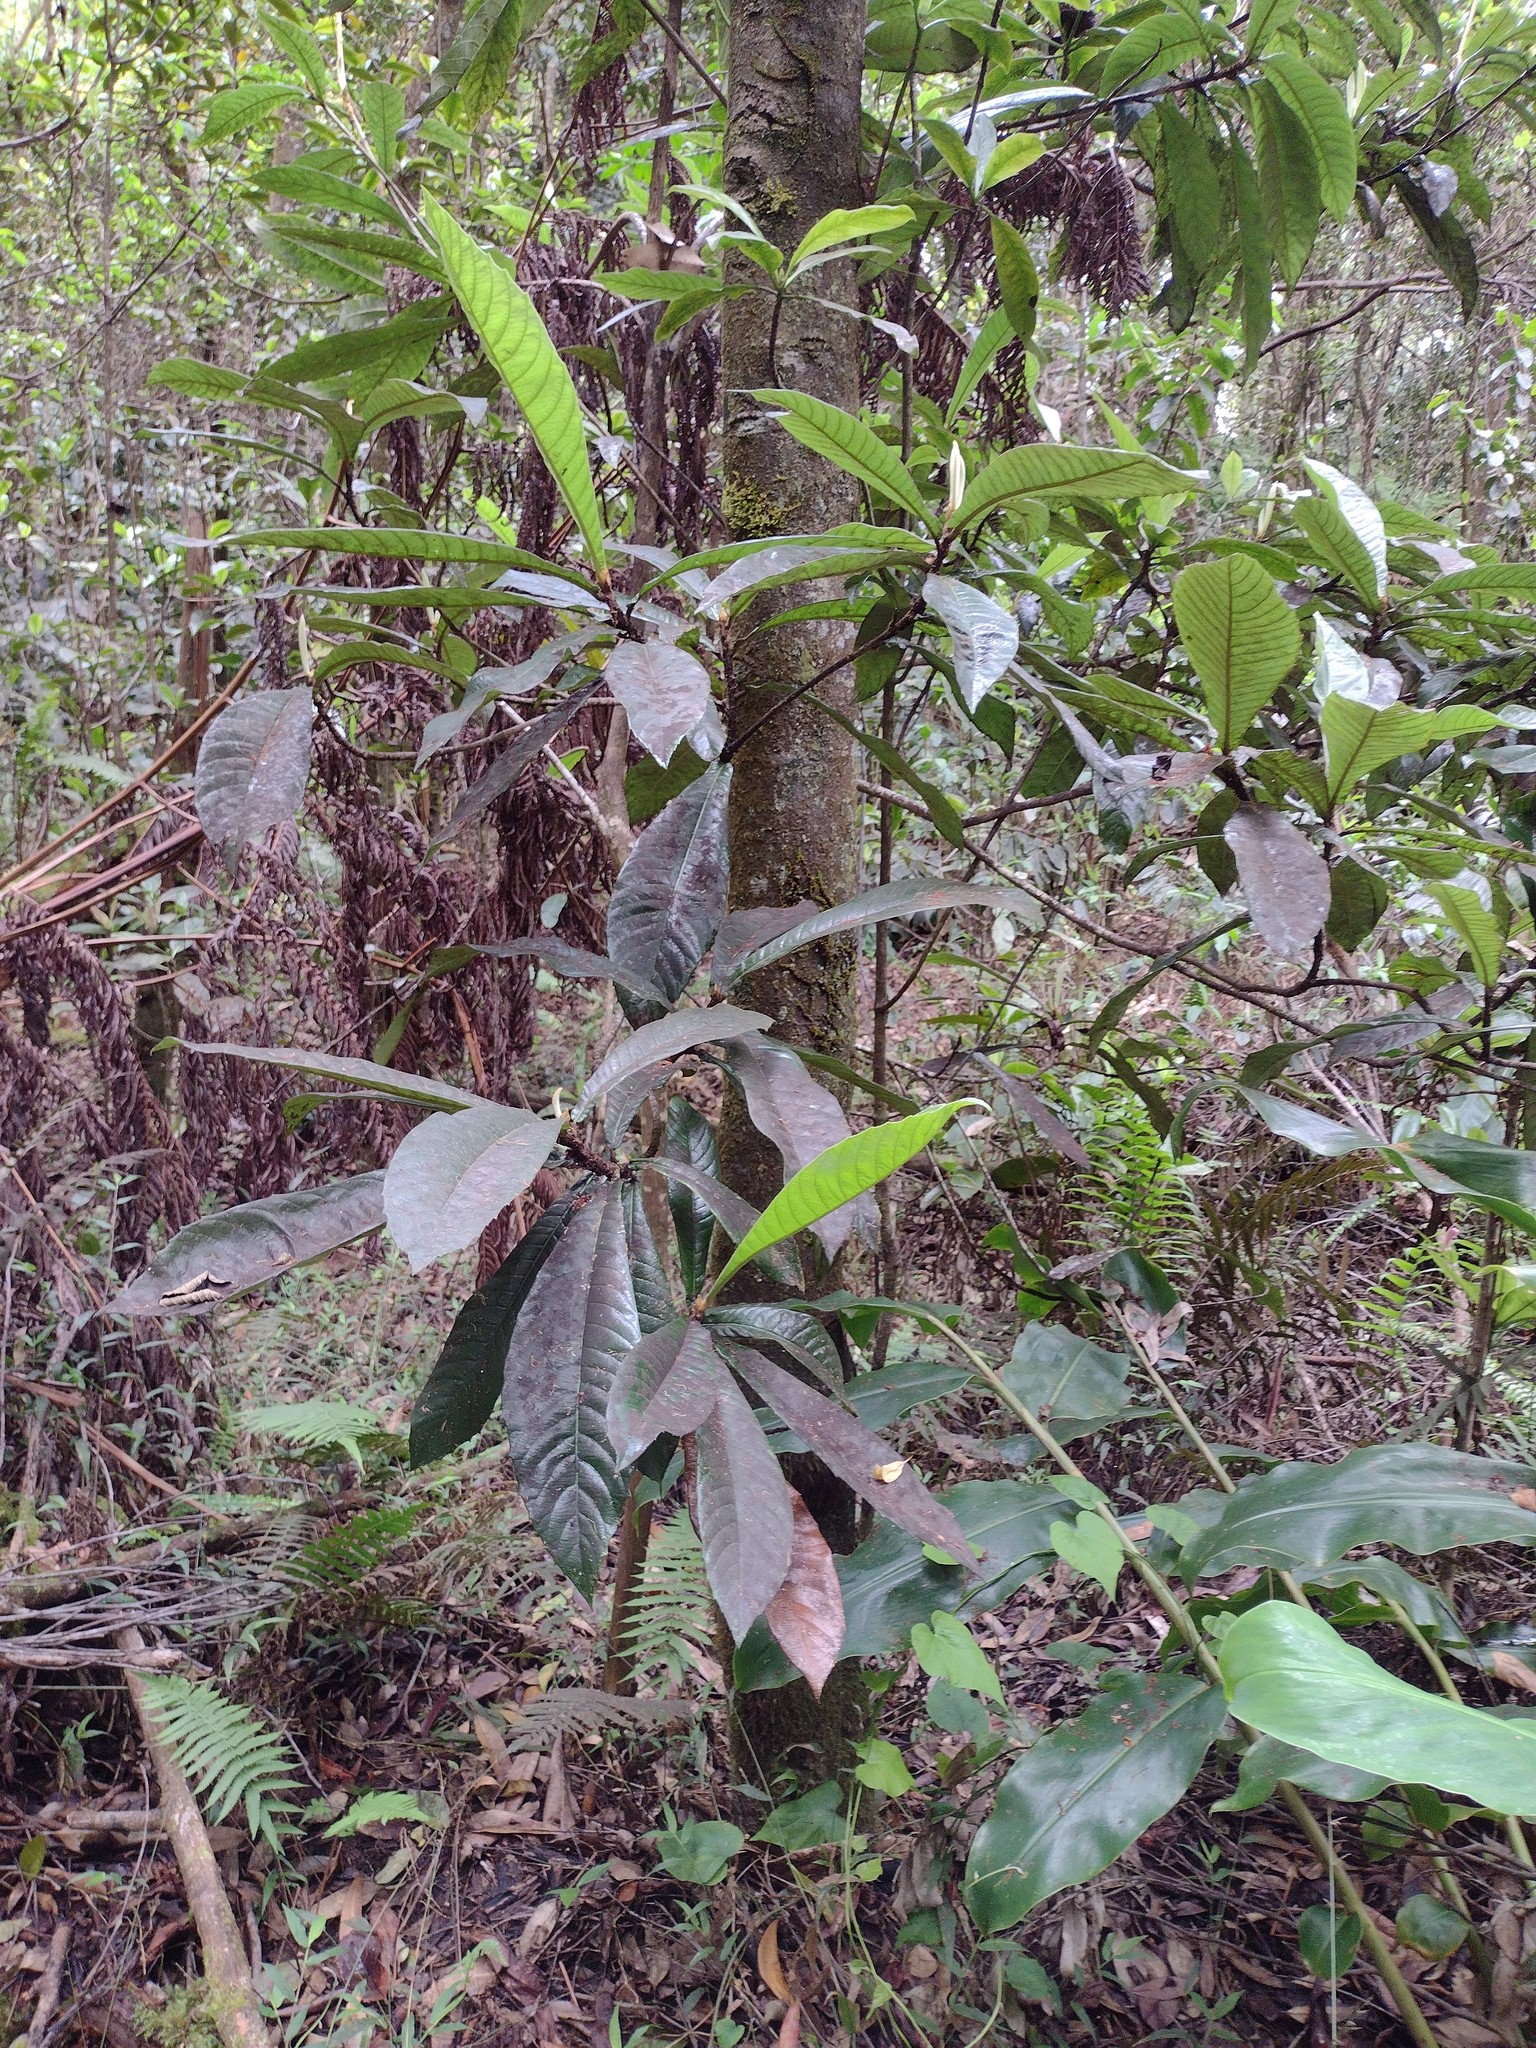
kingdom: Plantae
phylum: Tracheophyta
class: Magnoliopsida
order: Rosales
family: Rosaceae
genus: Rhaphiolepis
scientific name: Rhaphiolepis bibas
